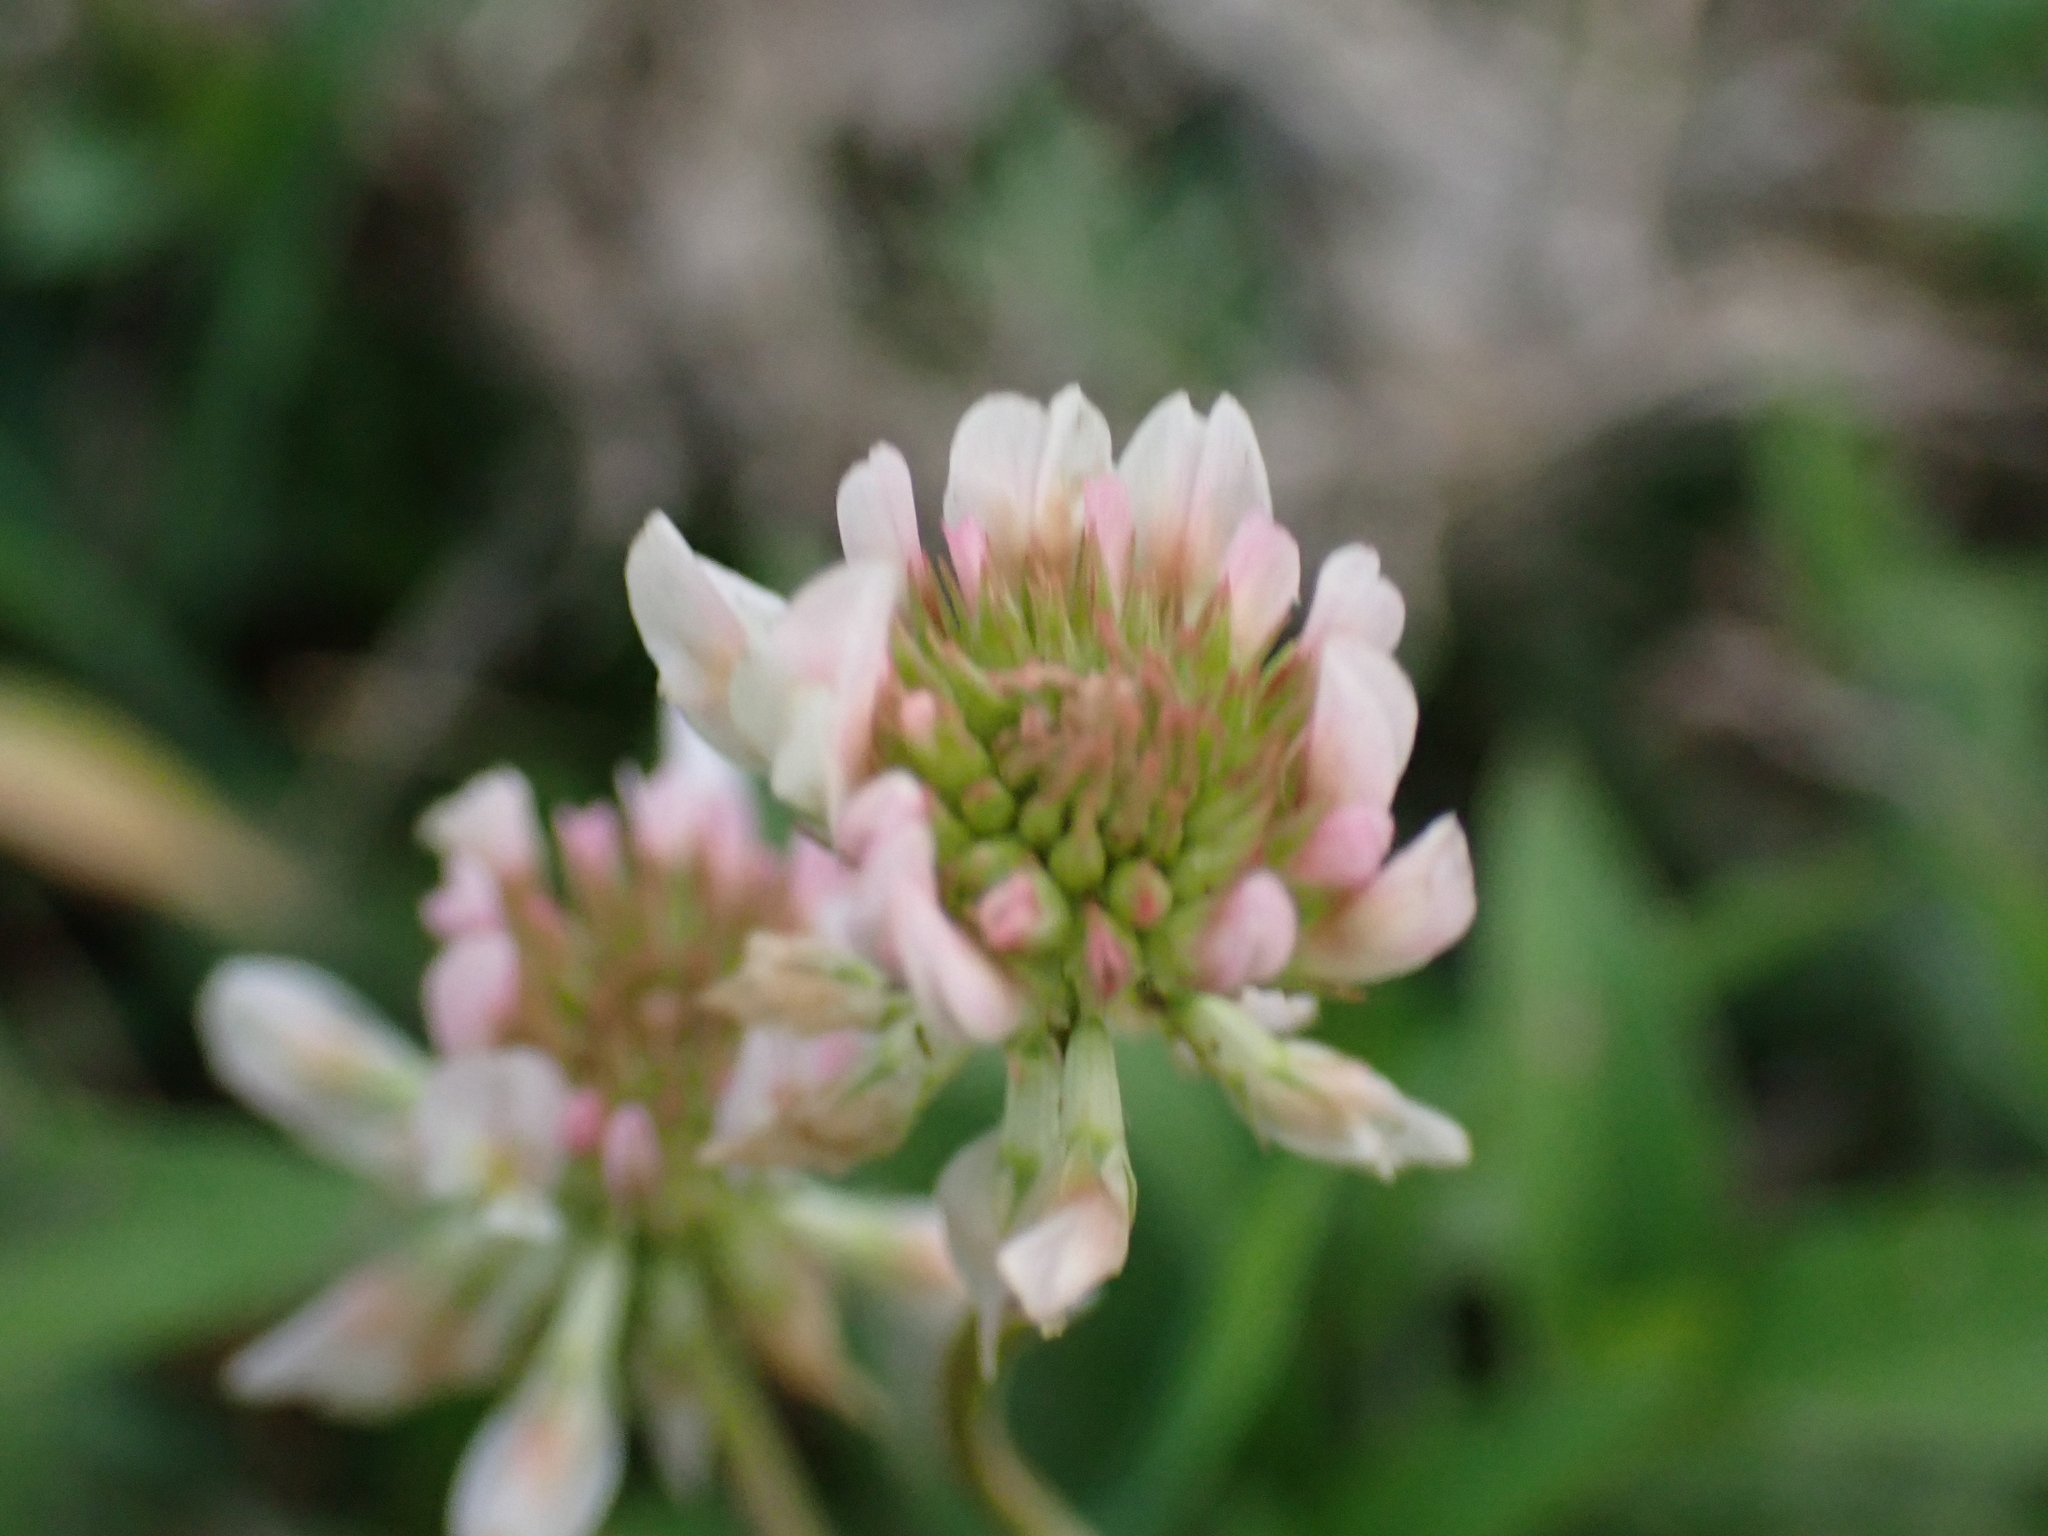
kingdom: Plantae
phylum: Tracheophyta
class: Magnoliopsida
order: Fabales
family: Fabaceae
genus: Trifolium
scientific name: Trifolium repens
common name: White clover
